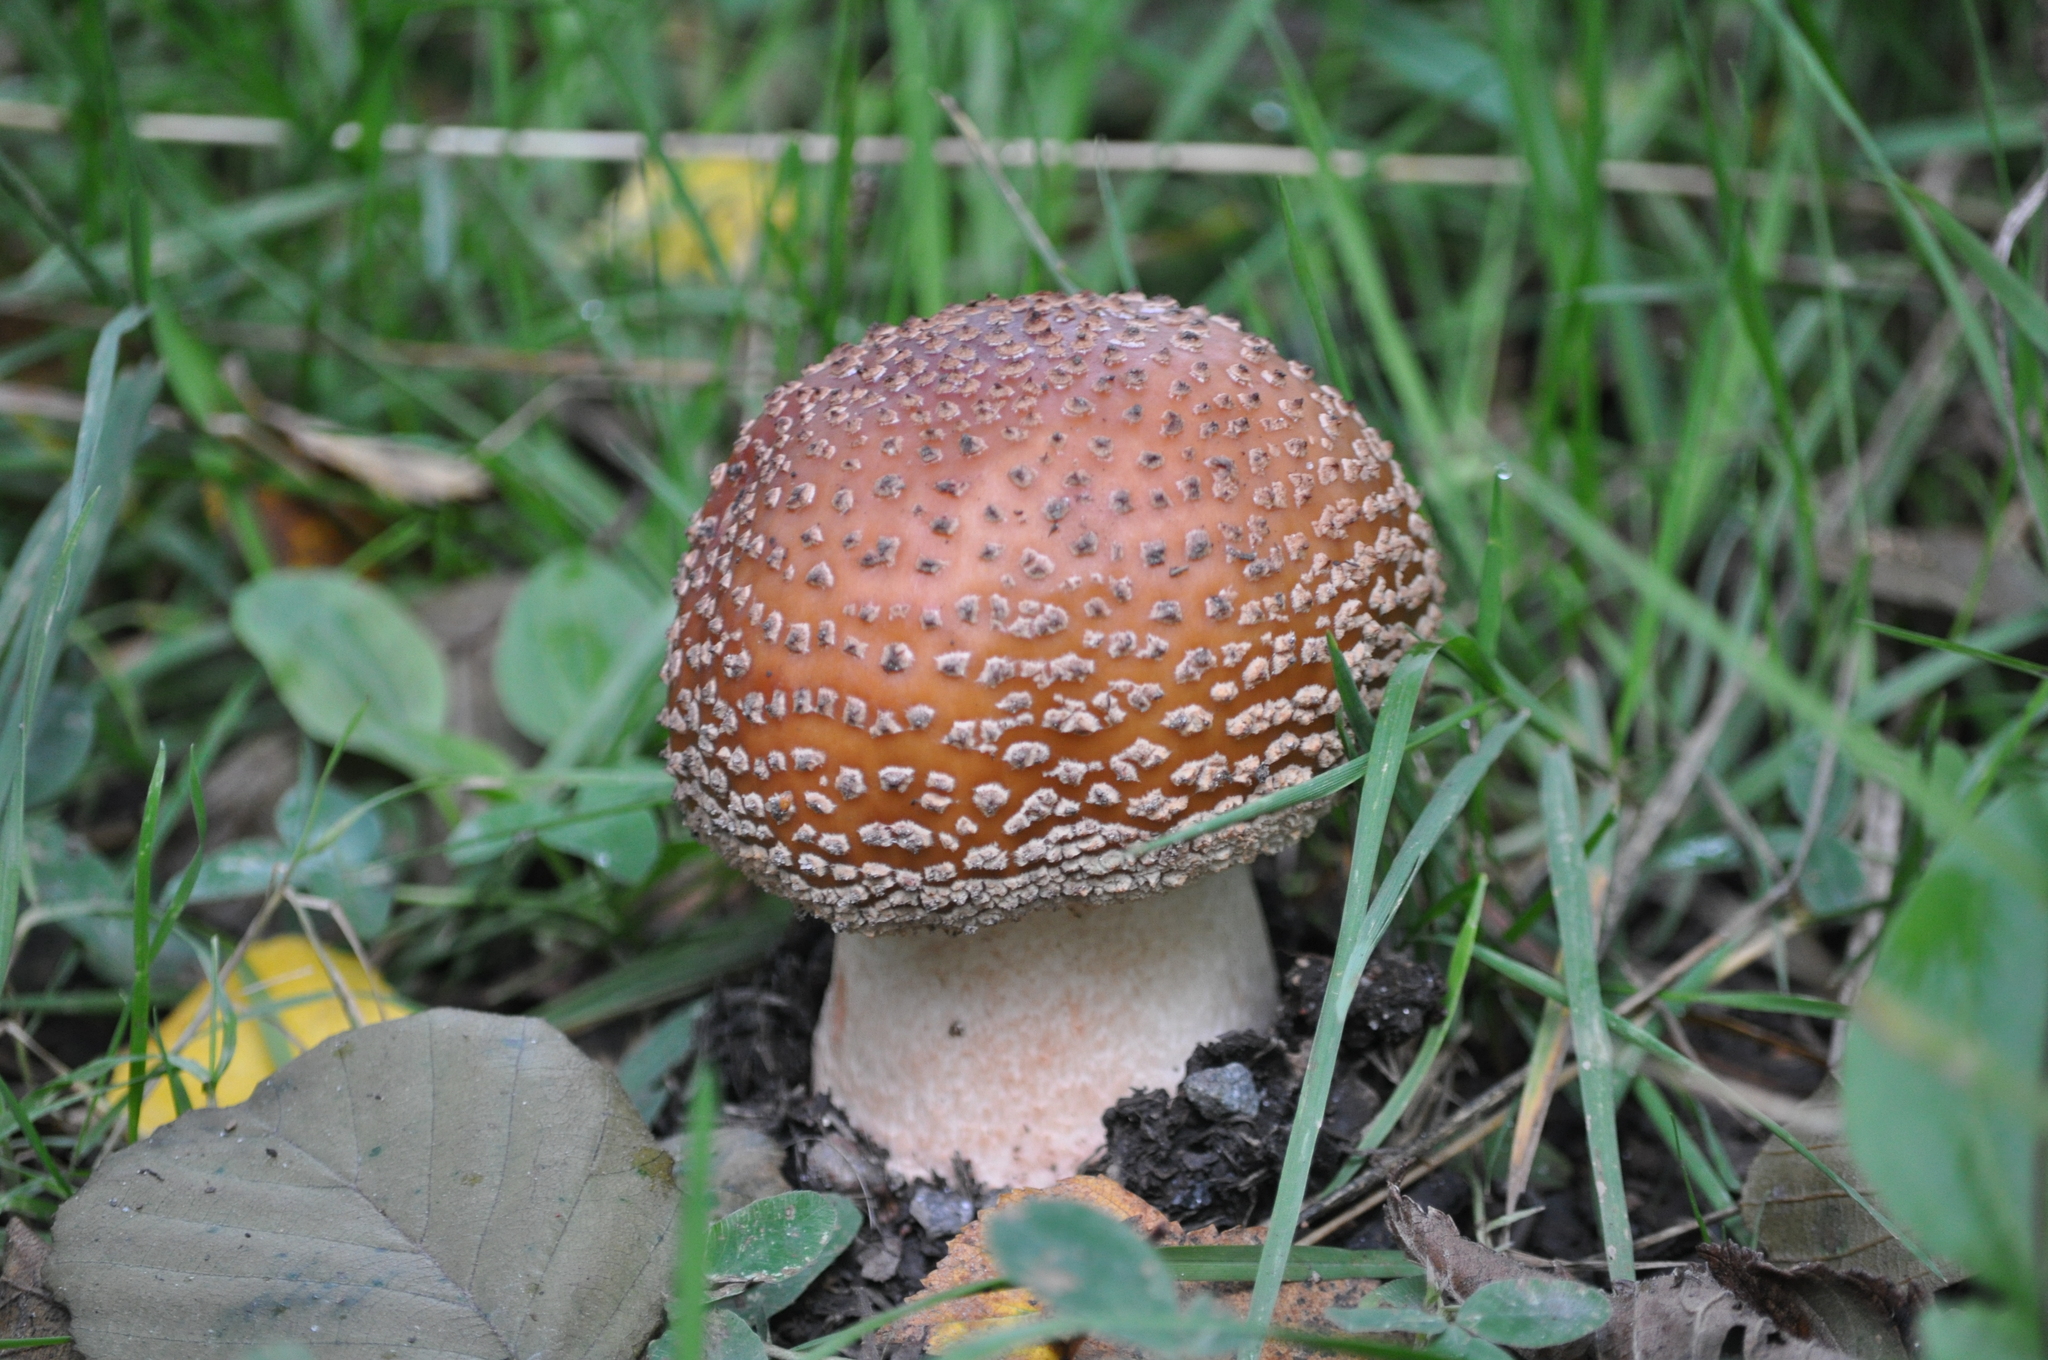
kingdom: Fungi
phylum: Basidiomycota
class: Agaricomycetes
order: Agaricales
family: Amanitaceae
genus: Amanita
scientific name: Amanita rubescens
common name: Blusher
